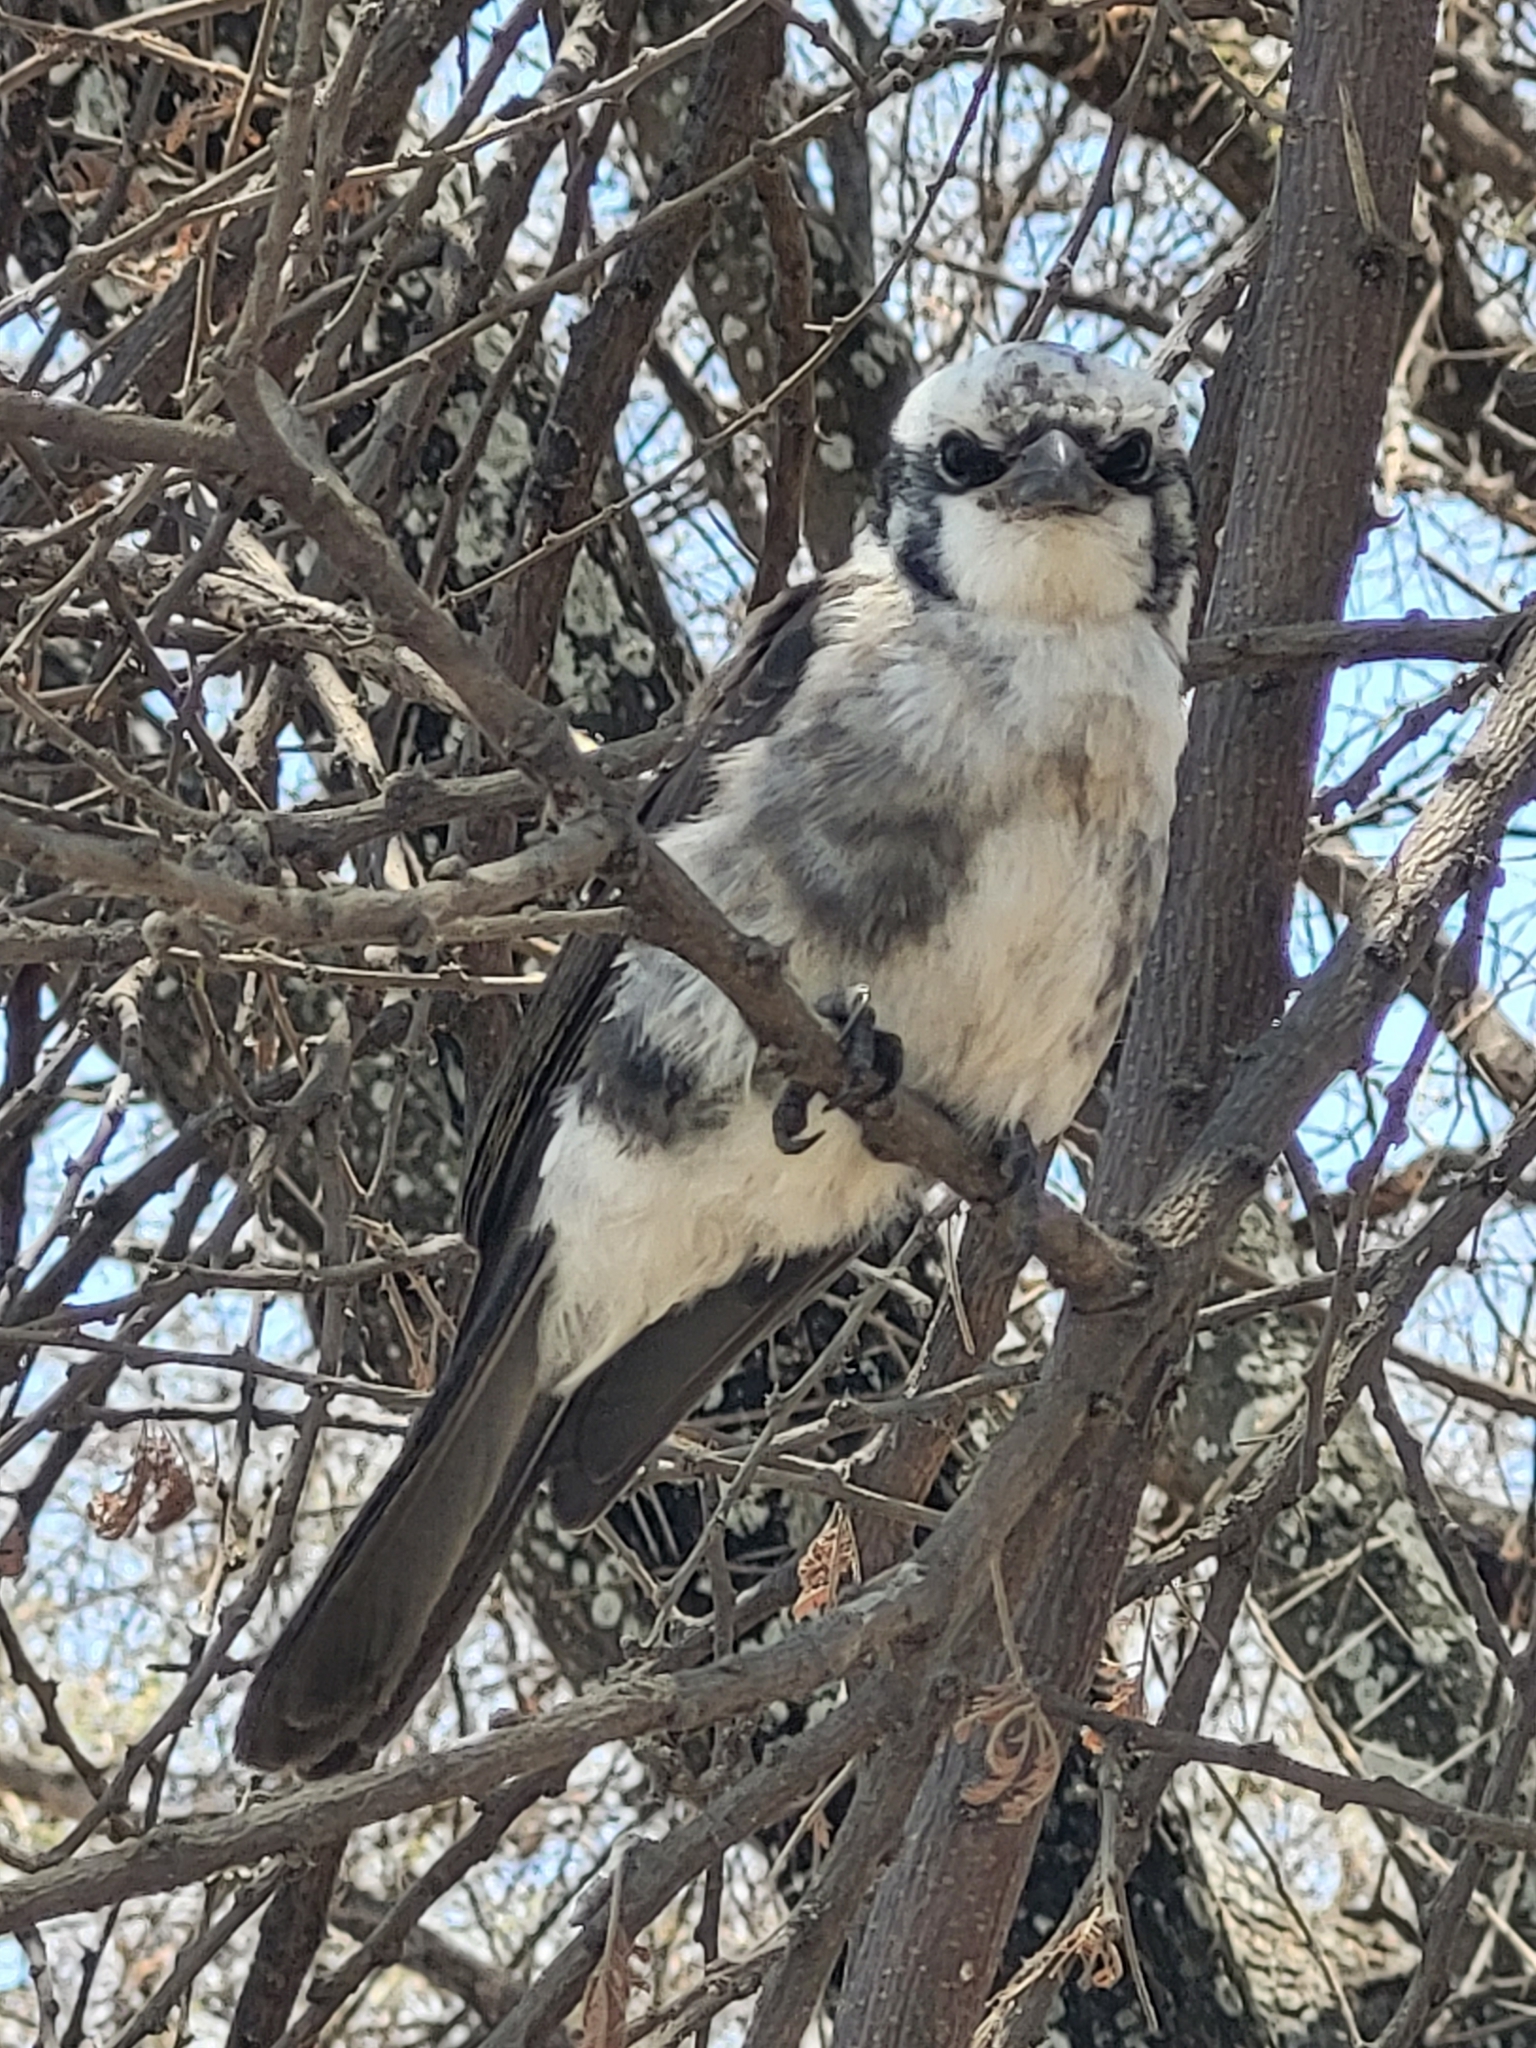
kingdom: Animalia
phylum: Chordata
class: Aves
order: Passeriformes
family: Laniidae
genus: Eurocephalus
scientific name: Eurocephalus ruppelli
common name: Northern white-crowned shrike
